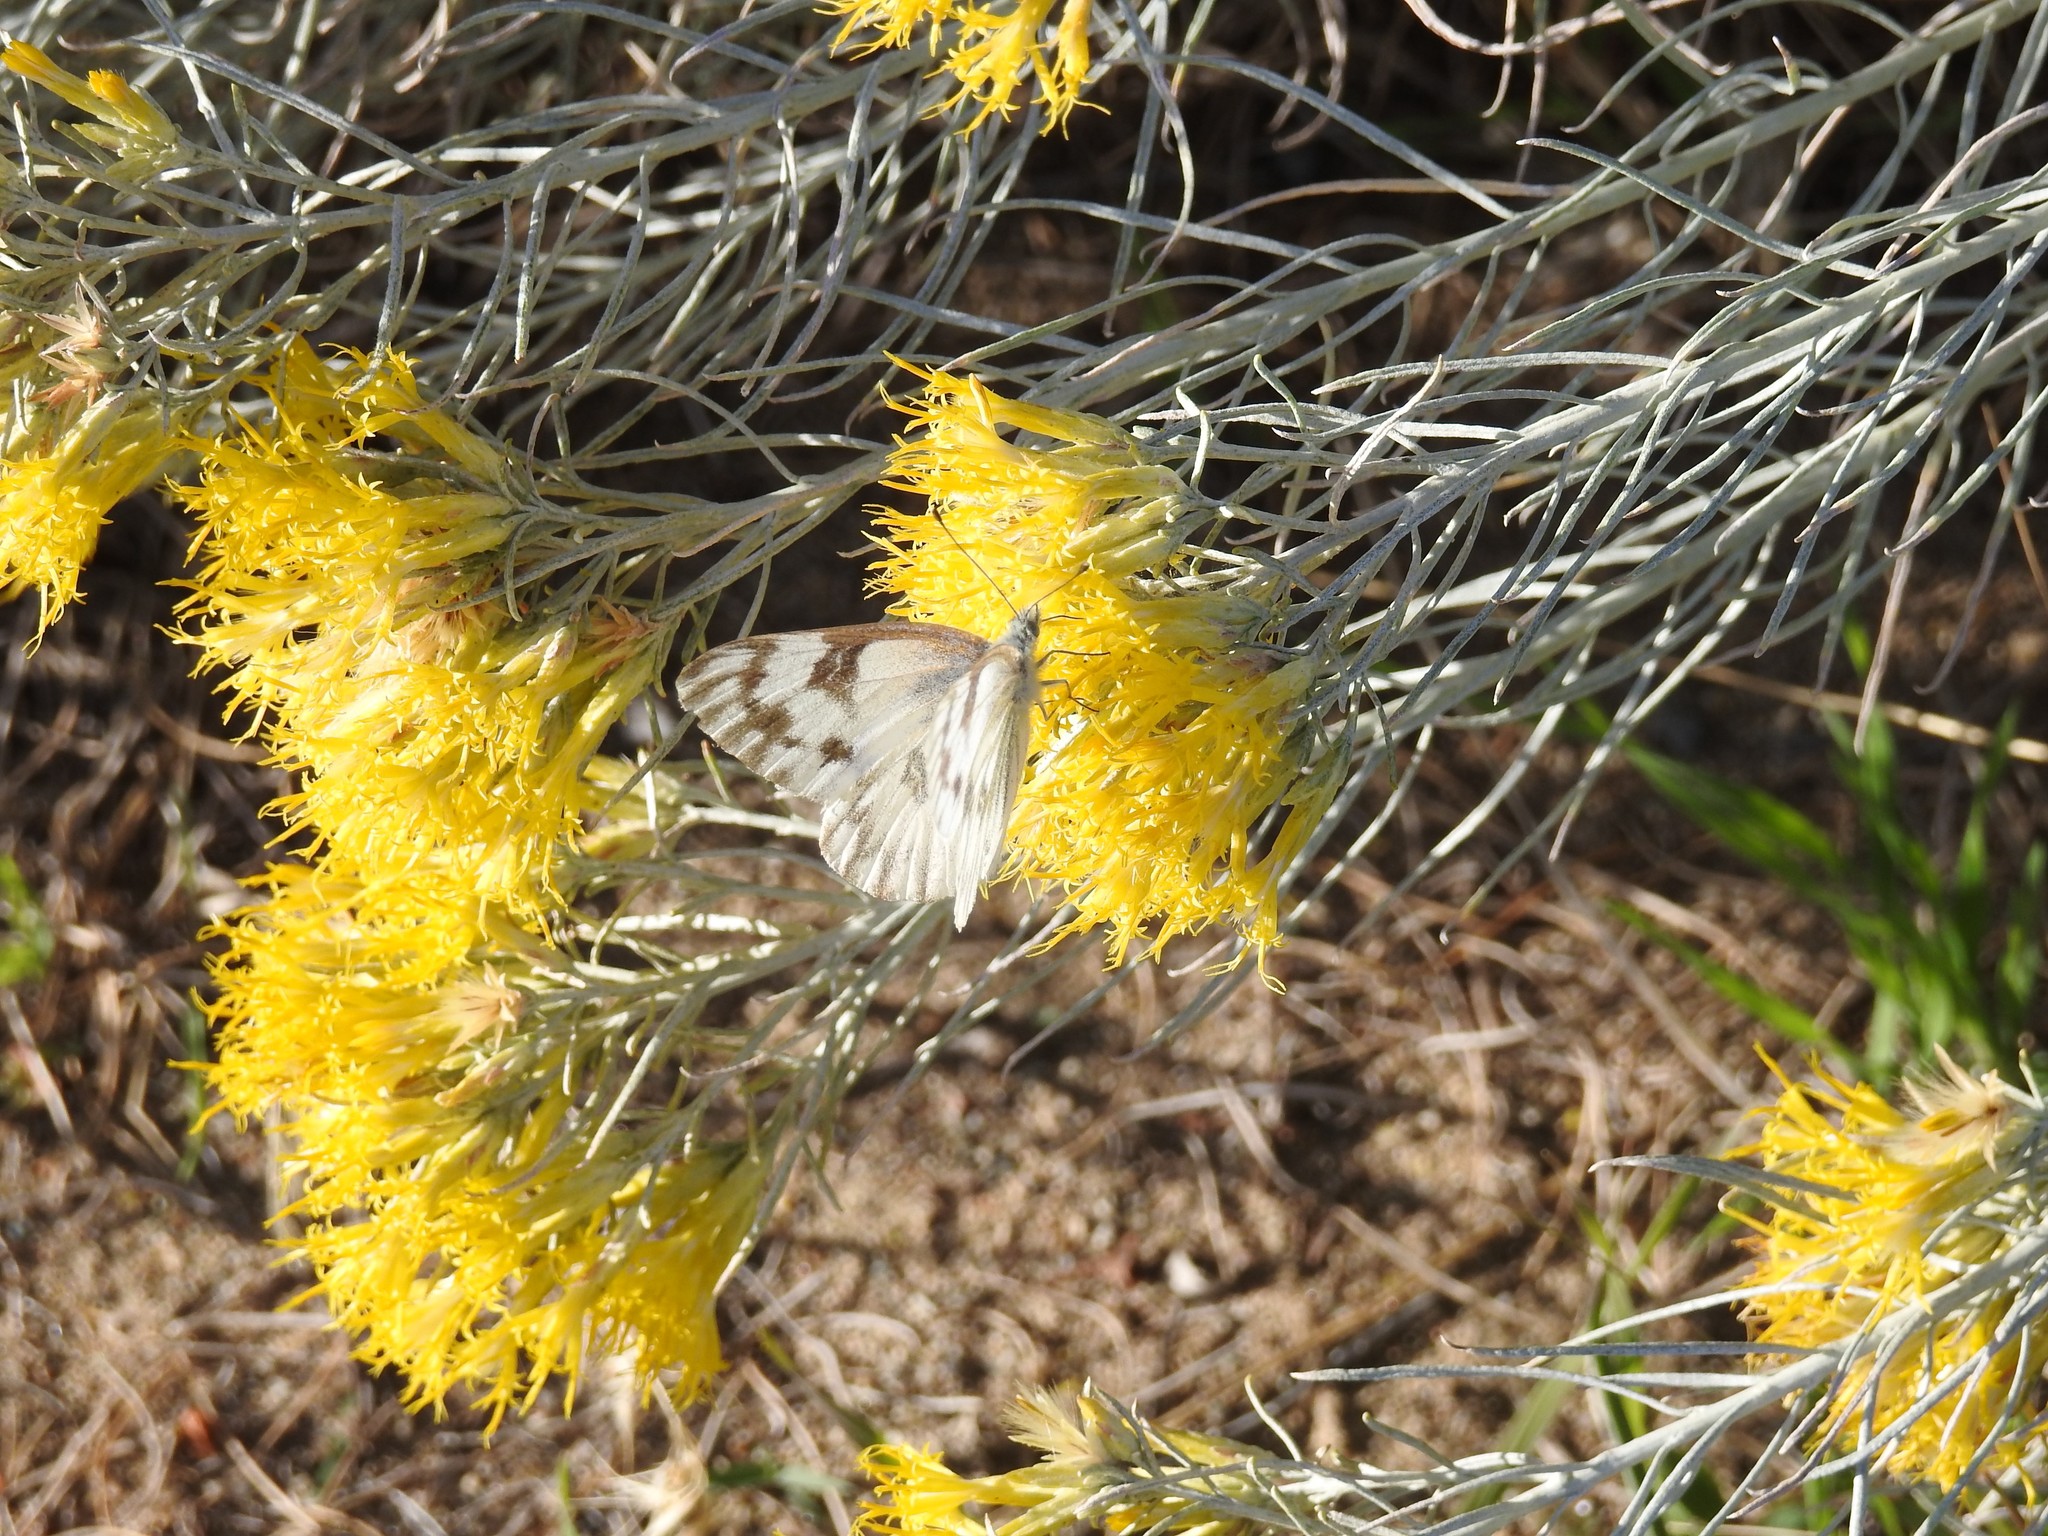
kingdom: Plantae
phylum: Tracheophyta
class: Magnoliopsida
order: Asterales
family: Asteraceae
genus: Ericameria
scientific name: Ericameria nauseosa
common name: Rubber rabbitbrush
